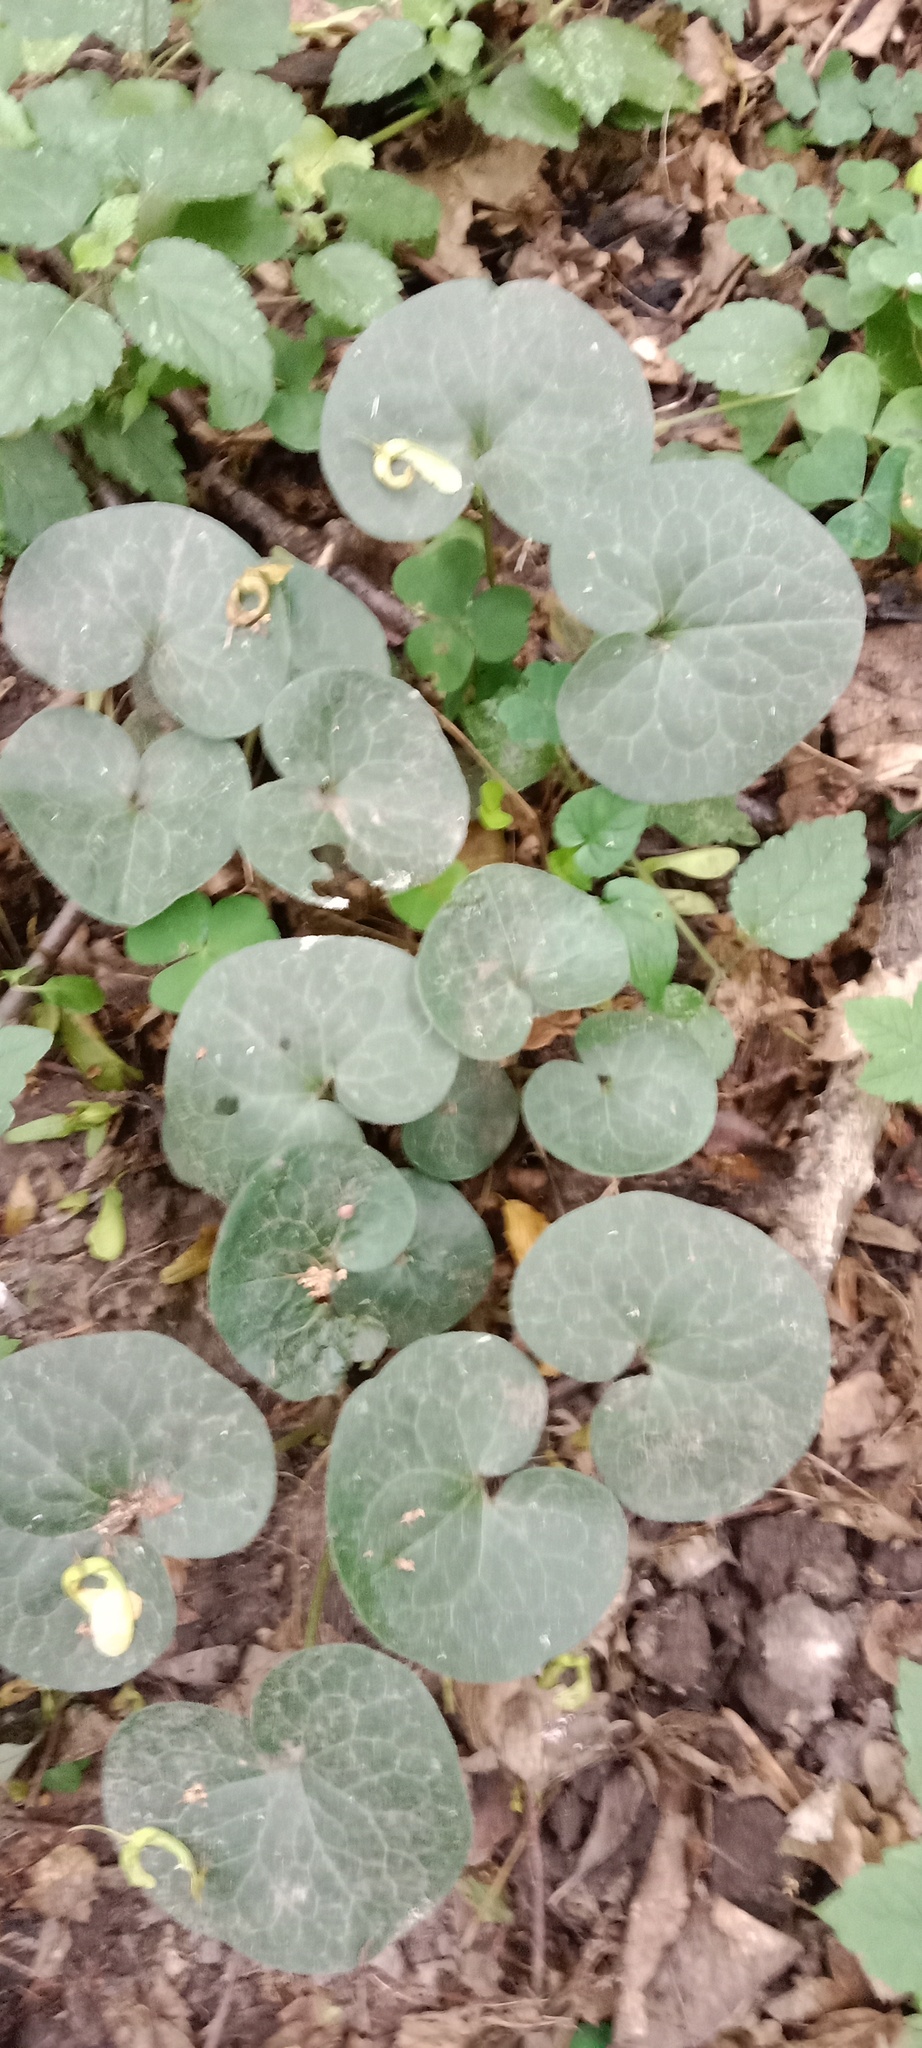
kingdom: Plantae
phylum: Tracheophyta
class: Magnoliopsida
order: Piperales
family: Aristolochiaceae
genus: Asarum
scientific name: Asarum europaeum
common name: Asarabacca
